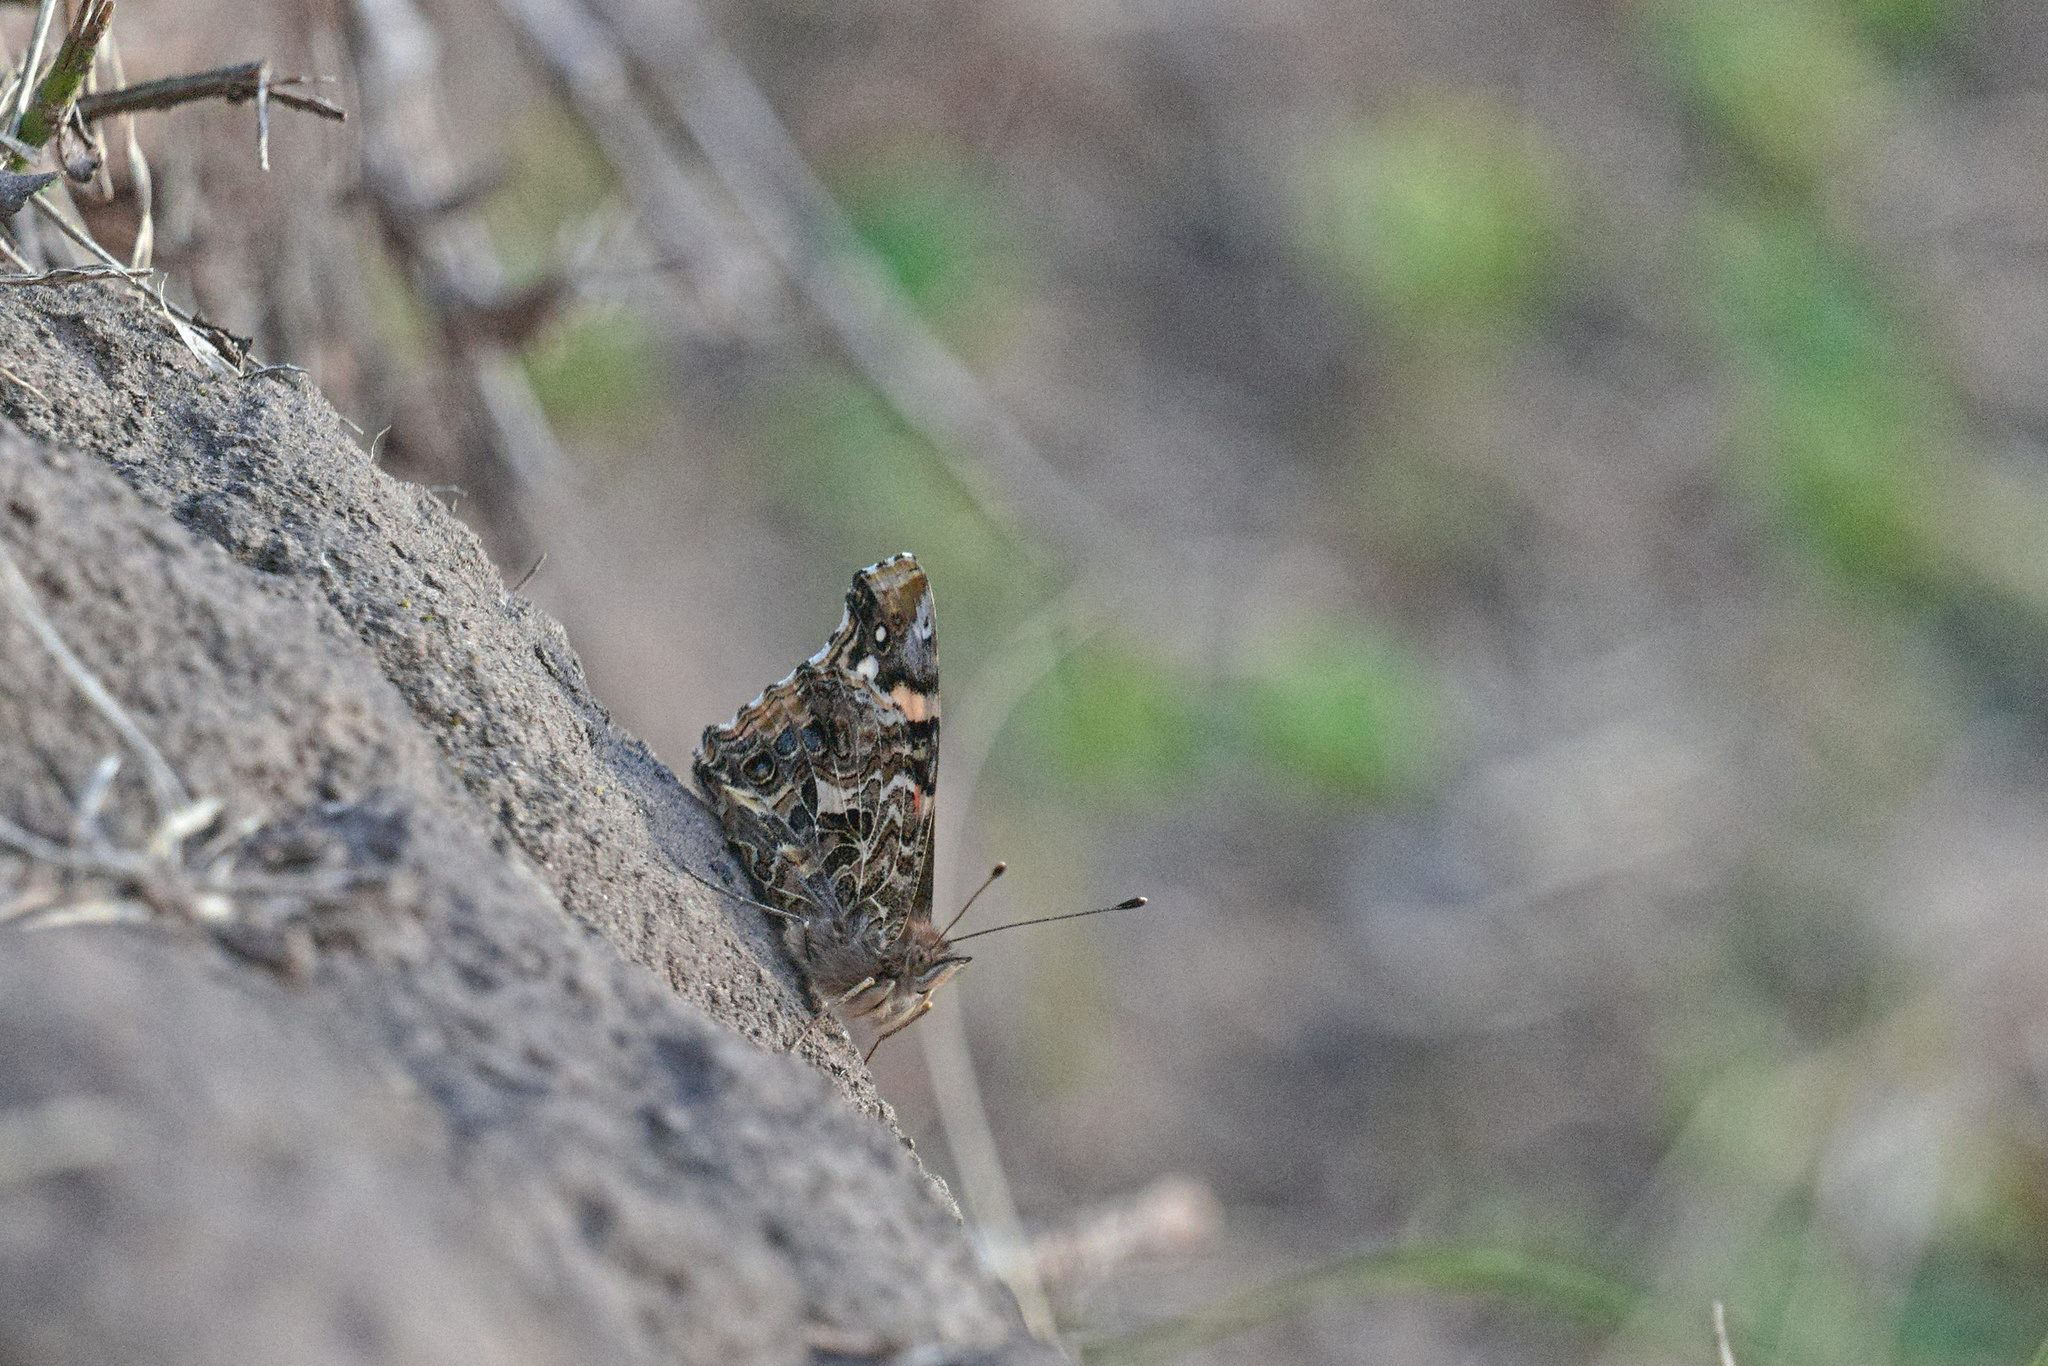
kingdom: Animalia
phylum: Arthropoda
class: Insecta
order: Lepidoptera
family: Nymphalidae
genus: Vanessa
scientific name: Vanessa carye
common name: Subtropical lady
